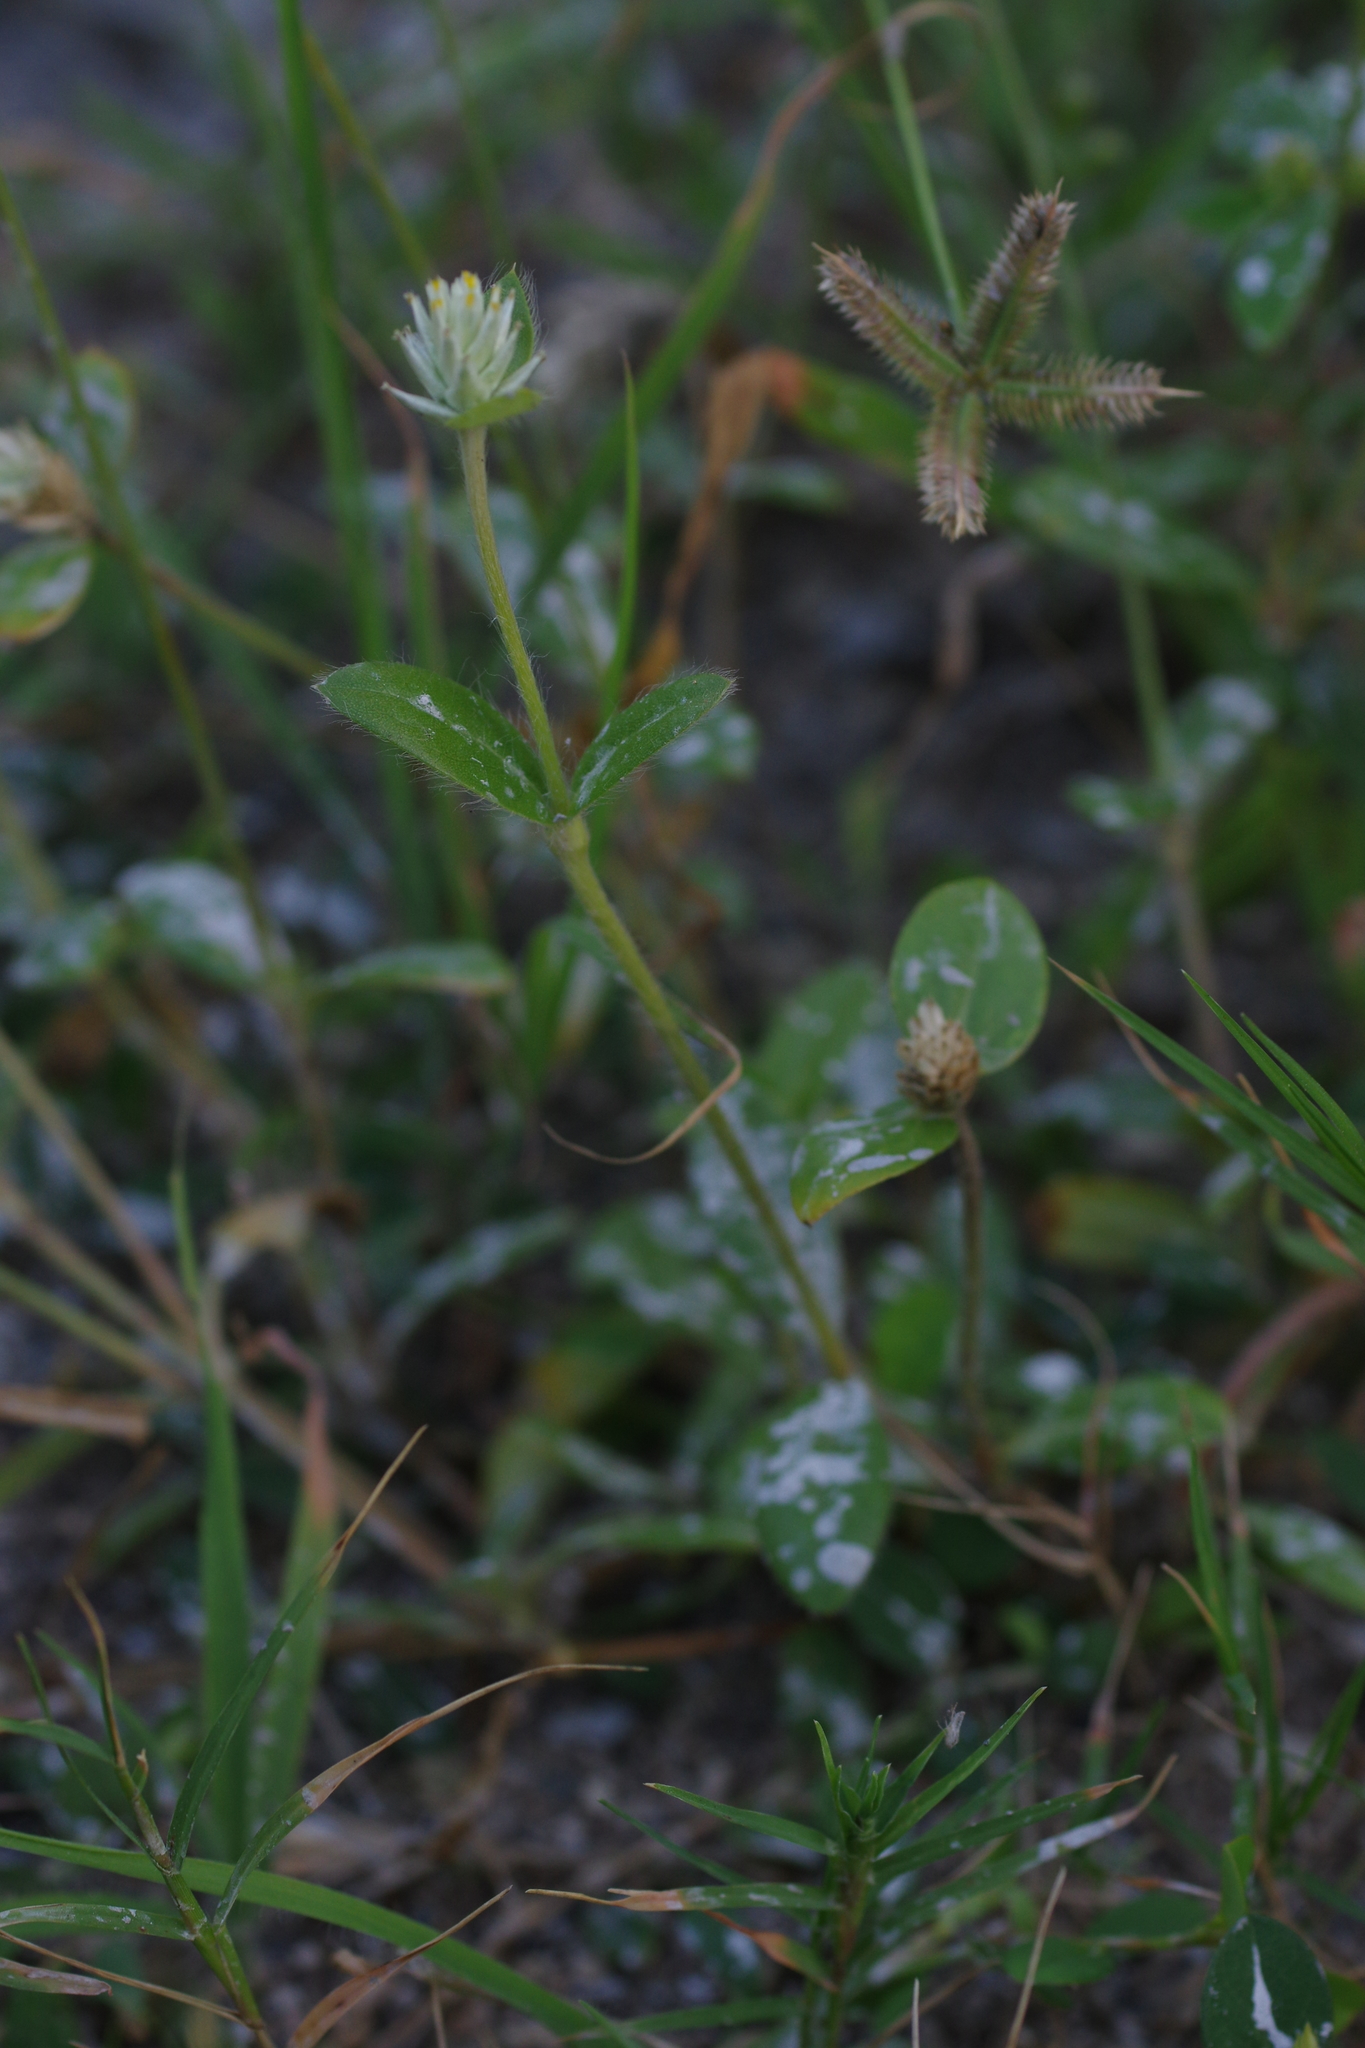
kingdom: Plantae
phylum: Tracheophyta
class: Magnoliopsida
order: Caryophyllales
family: Amaranthaceae
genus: Gomphrena
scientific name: Gomphrena celosioides
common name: Gomphrena-weed
